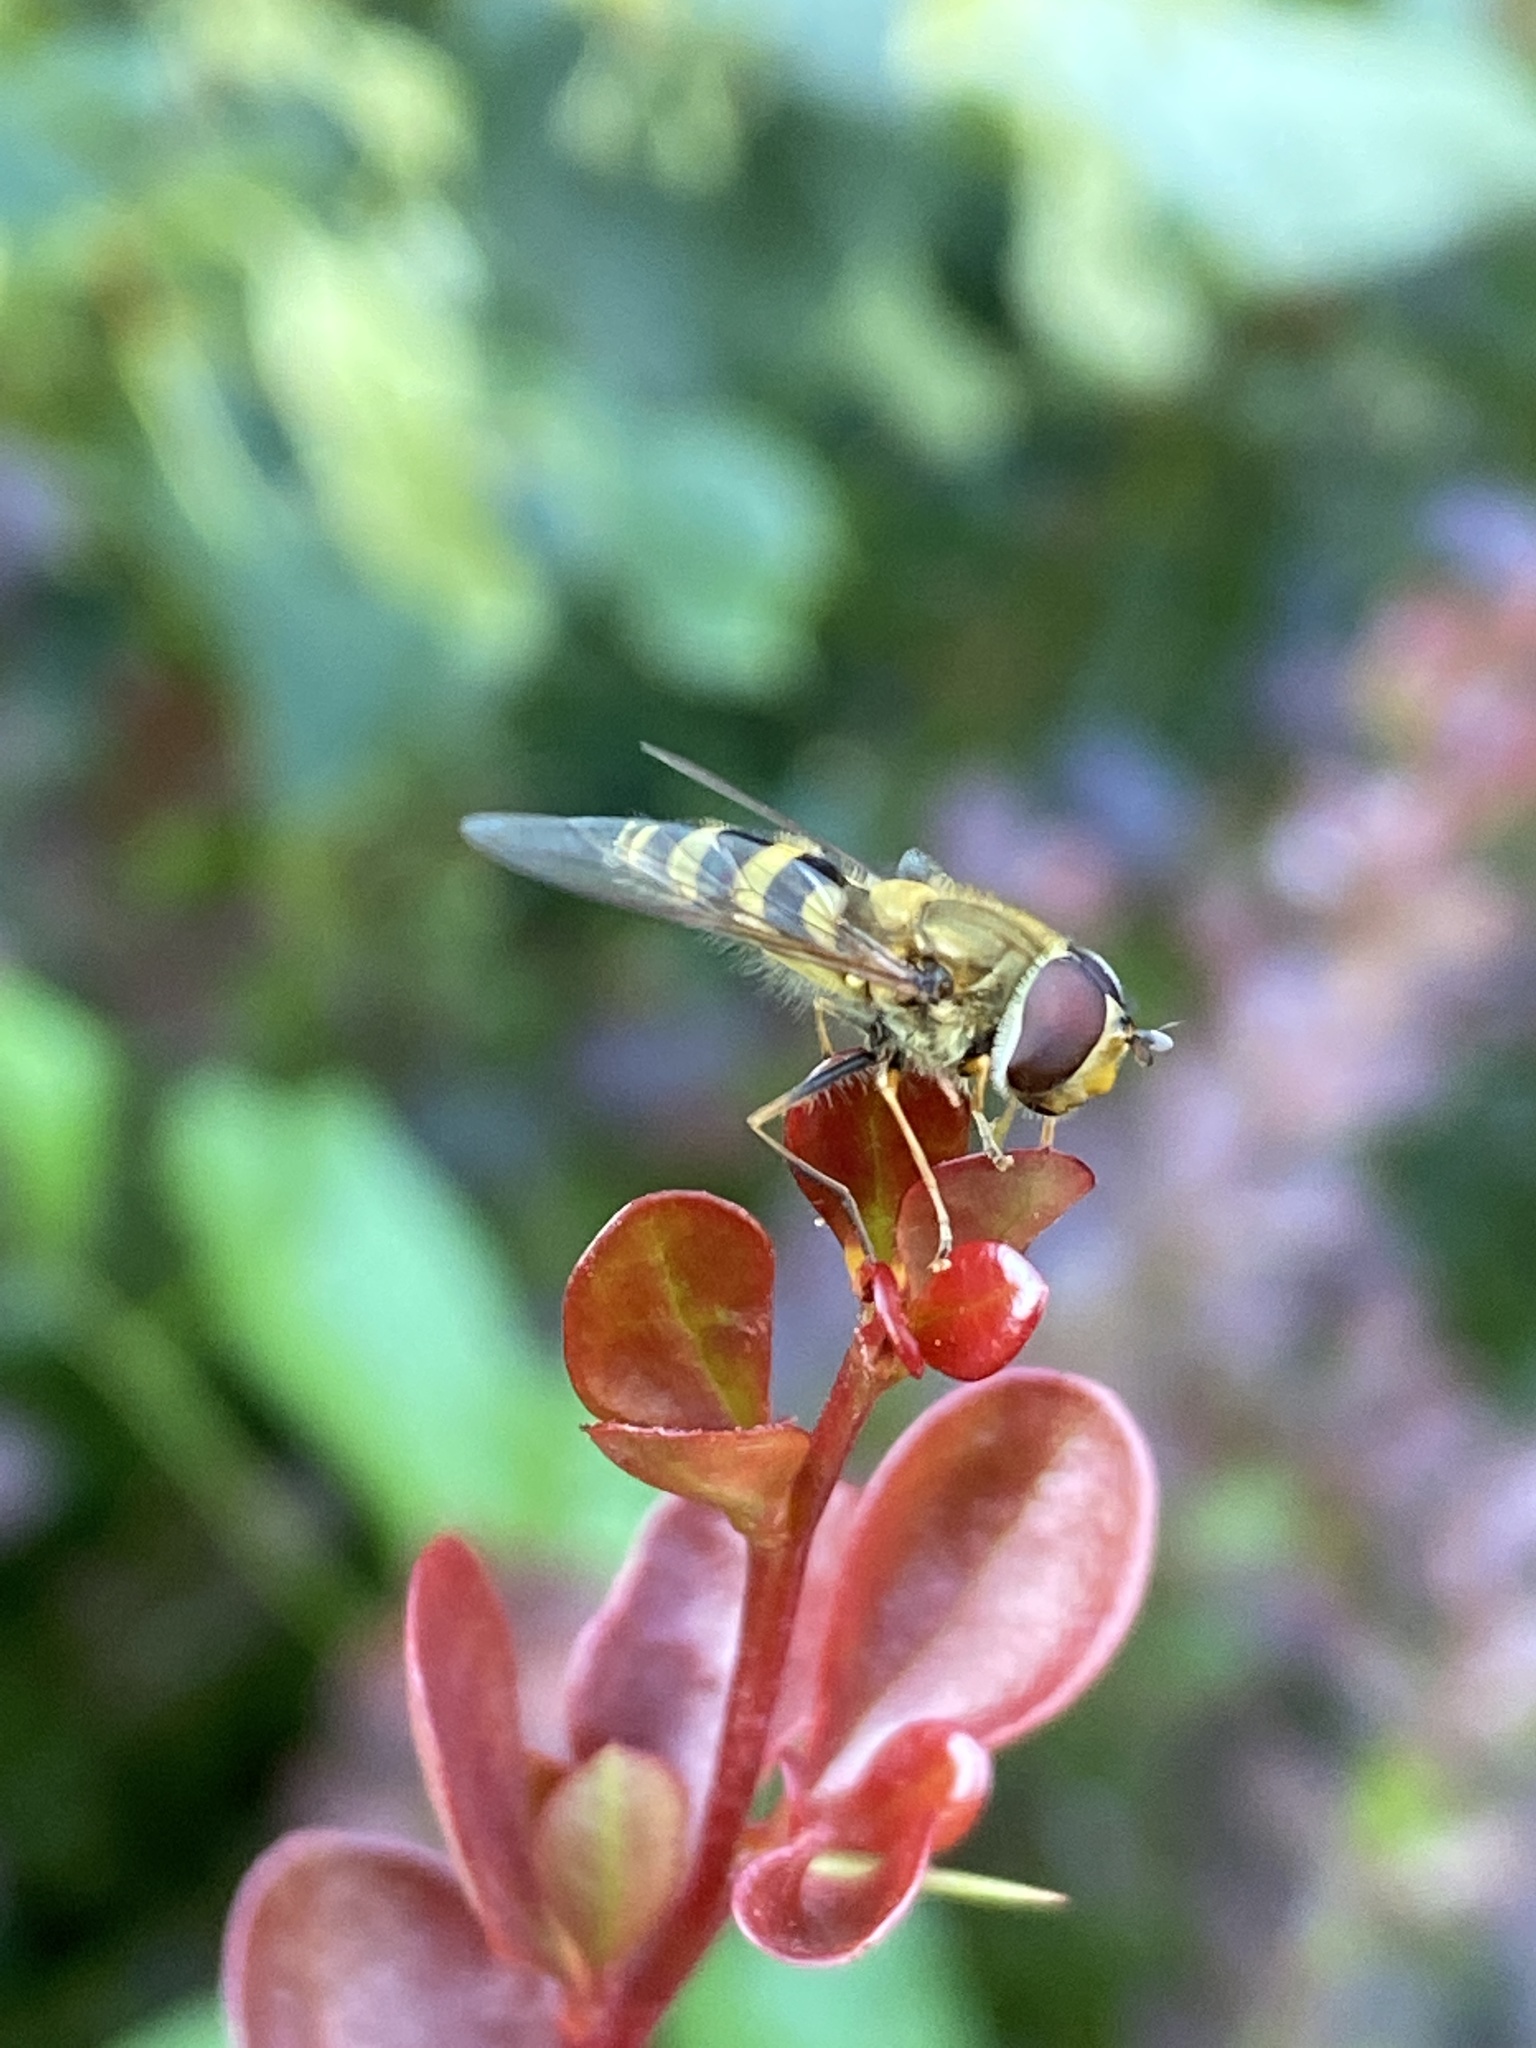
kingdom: Animalia
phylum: Arthropoda
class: Insecta
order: Diptera
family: Syrphidae
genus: Syrphus
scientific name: Syrphus torvus
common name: Hairy-eyed flower fly
